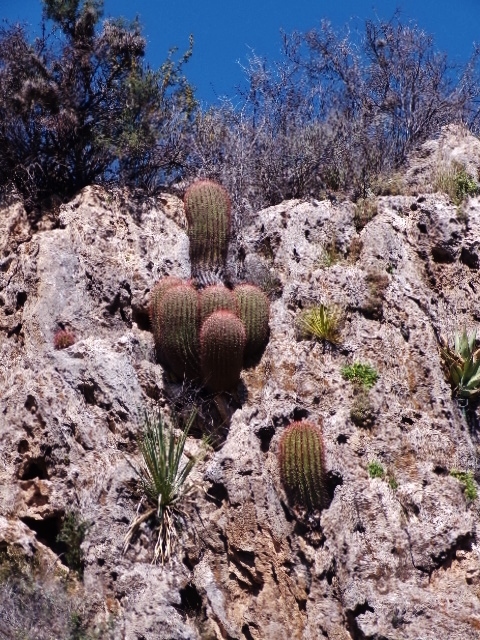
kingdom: Plantae
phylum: Tracheophyta
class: Magnoliopsida
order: Caryophyllales
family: Cactaceae
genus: Ferocactus
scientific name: Ferocactus pilosus
